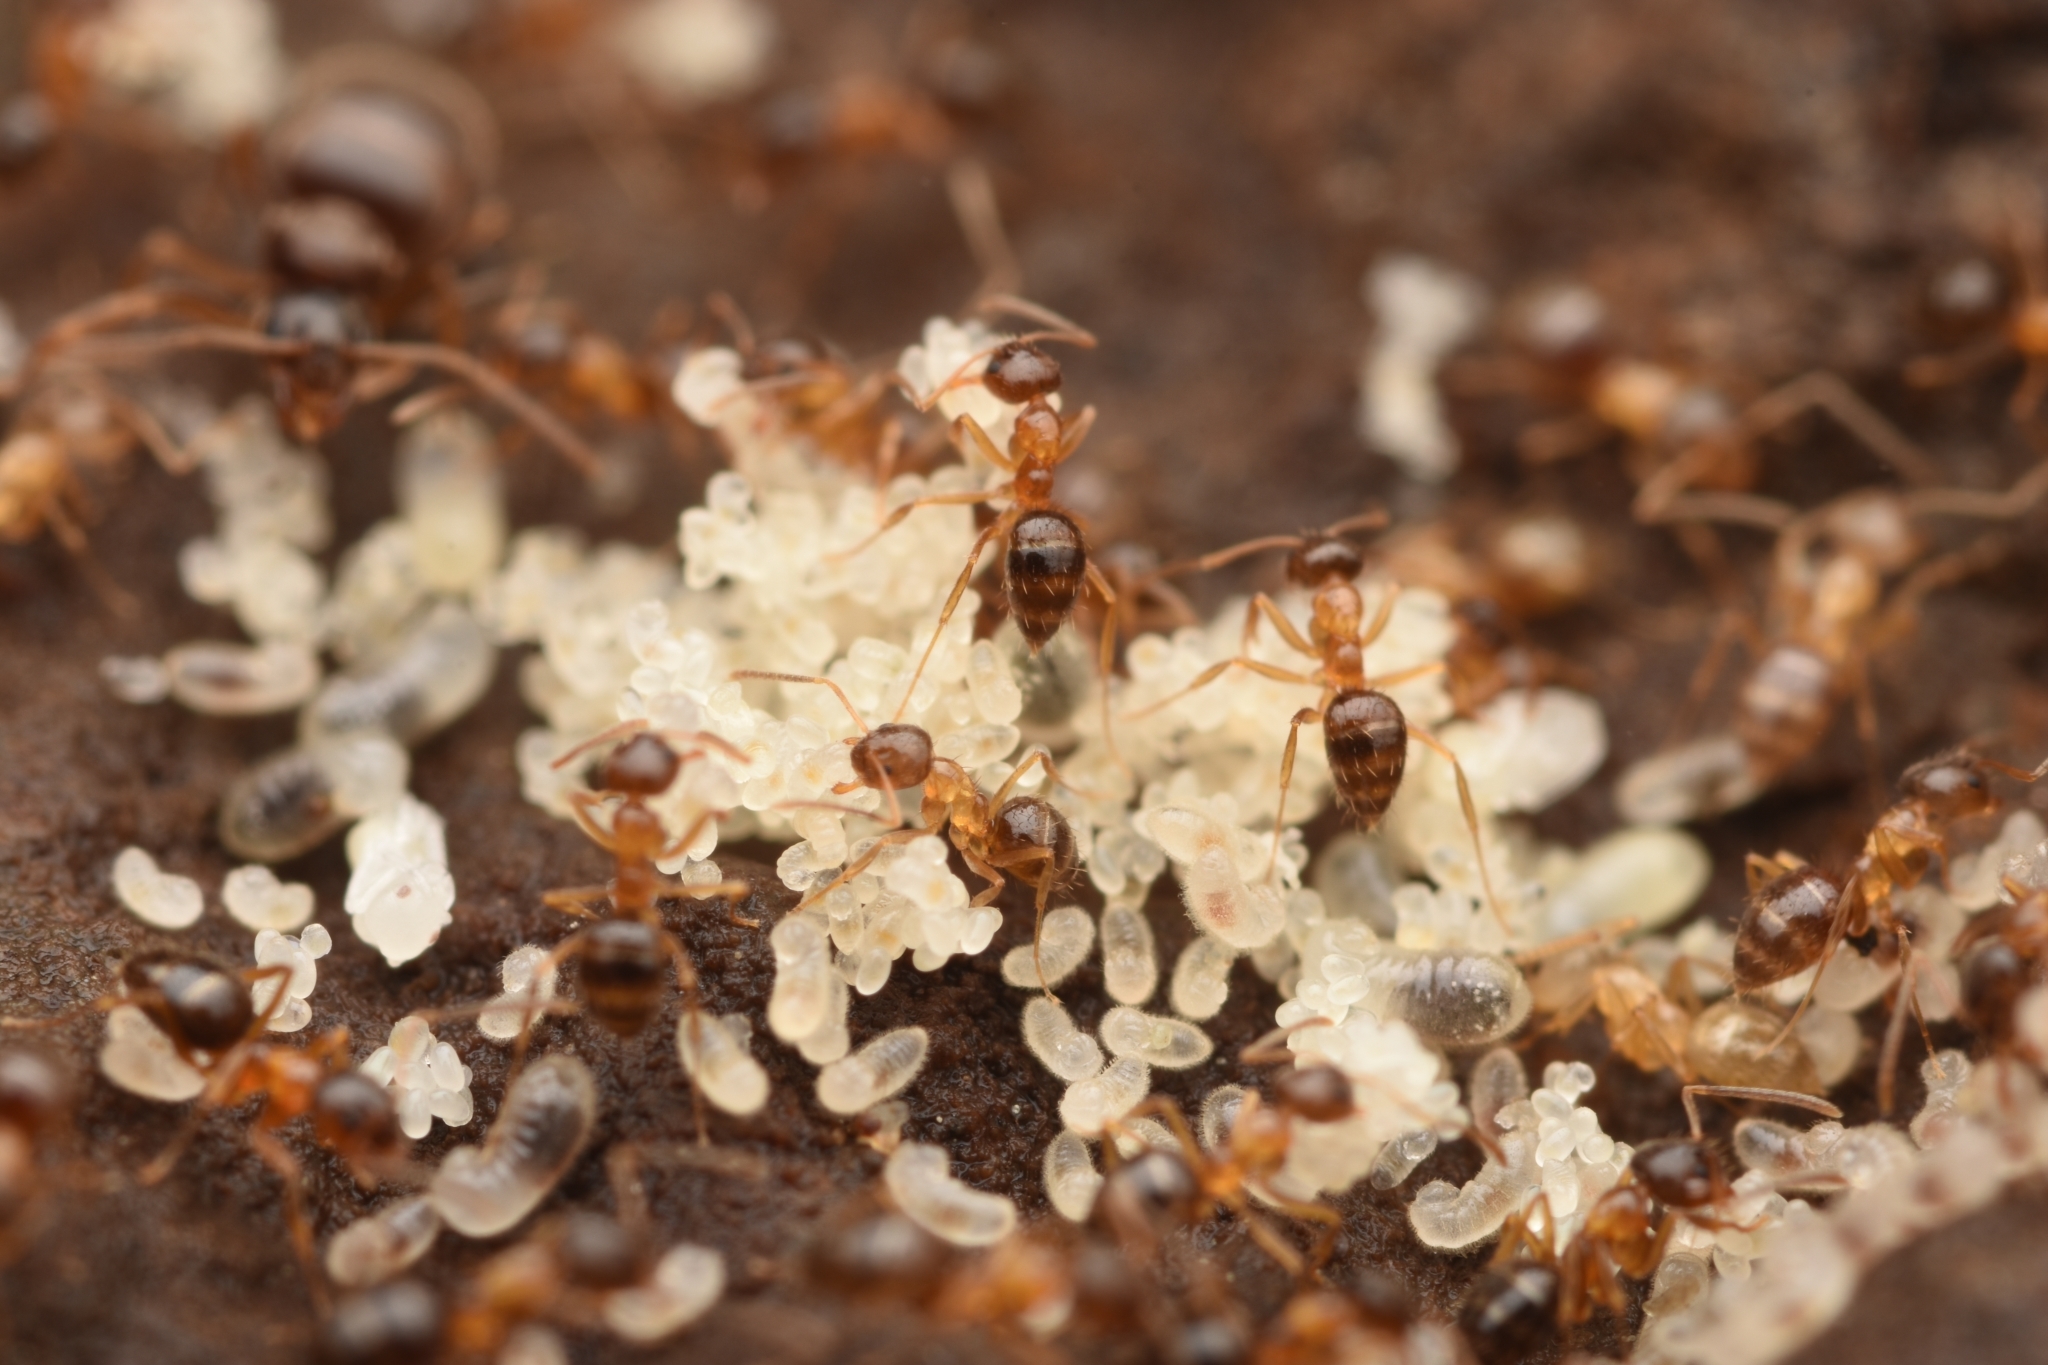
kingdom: Animalia
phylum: Arthropoda
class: Insecta
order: Hymenoptera
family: Formicidae
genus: Paratrechina
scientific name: Paratrechina flavipes
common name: Eastern asian formicine ant
